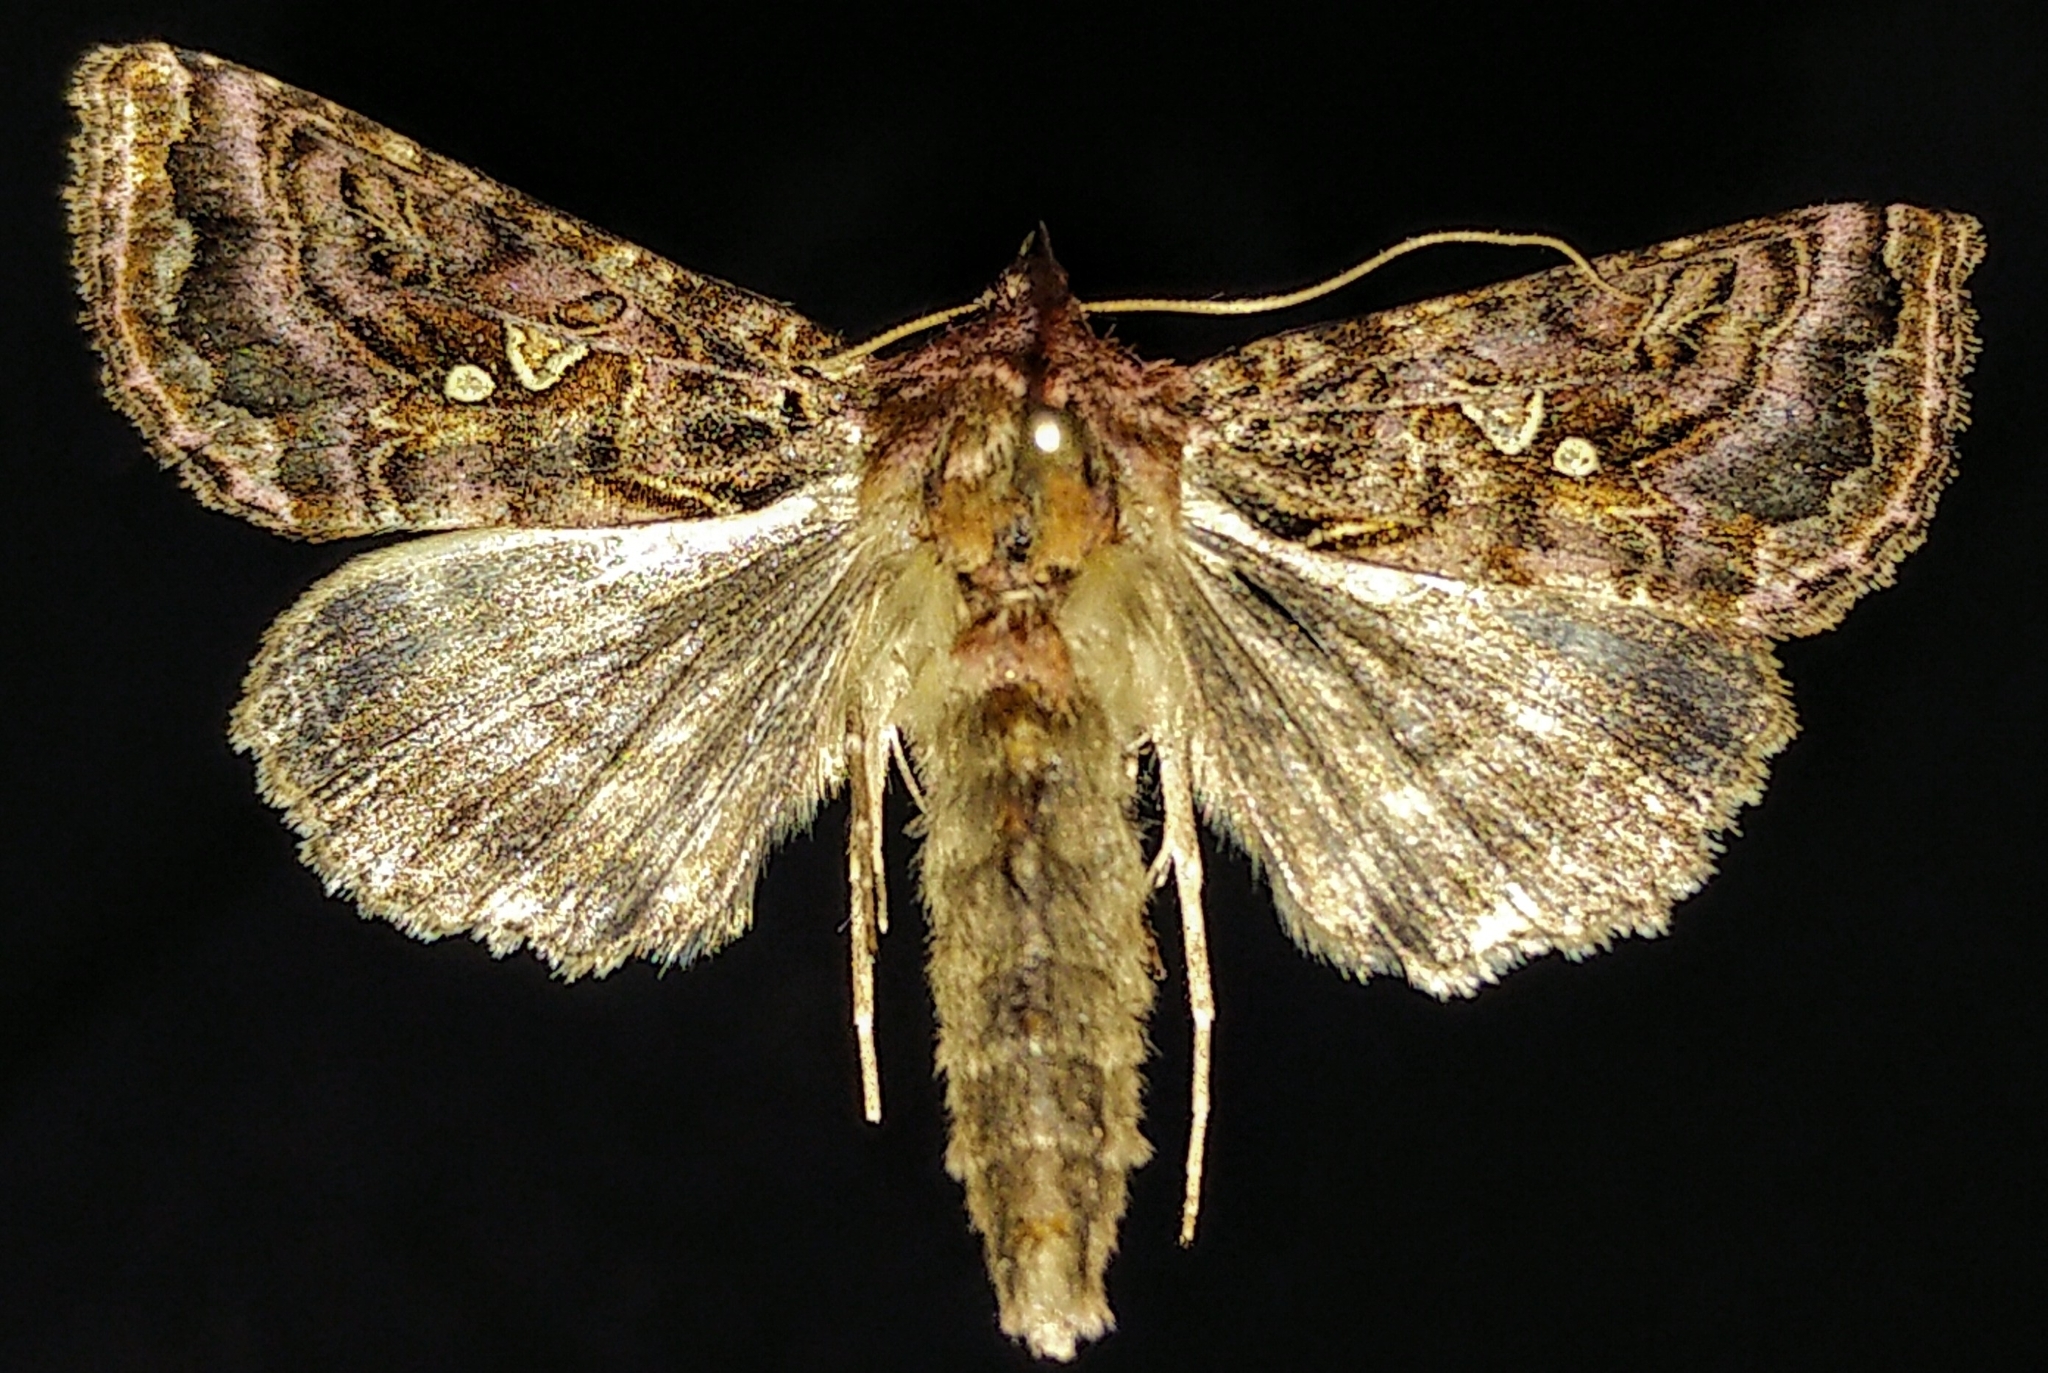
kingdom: Animalia
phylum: Arthropoda
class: Insecta
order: Lepidoptera
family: Noctuidae
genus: Autographa
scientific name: Autographa mappa
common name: Wavy chestnut y moth
